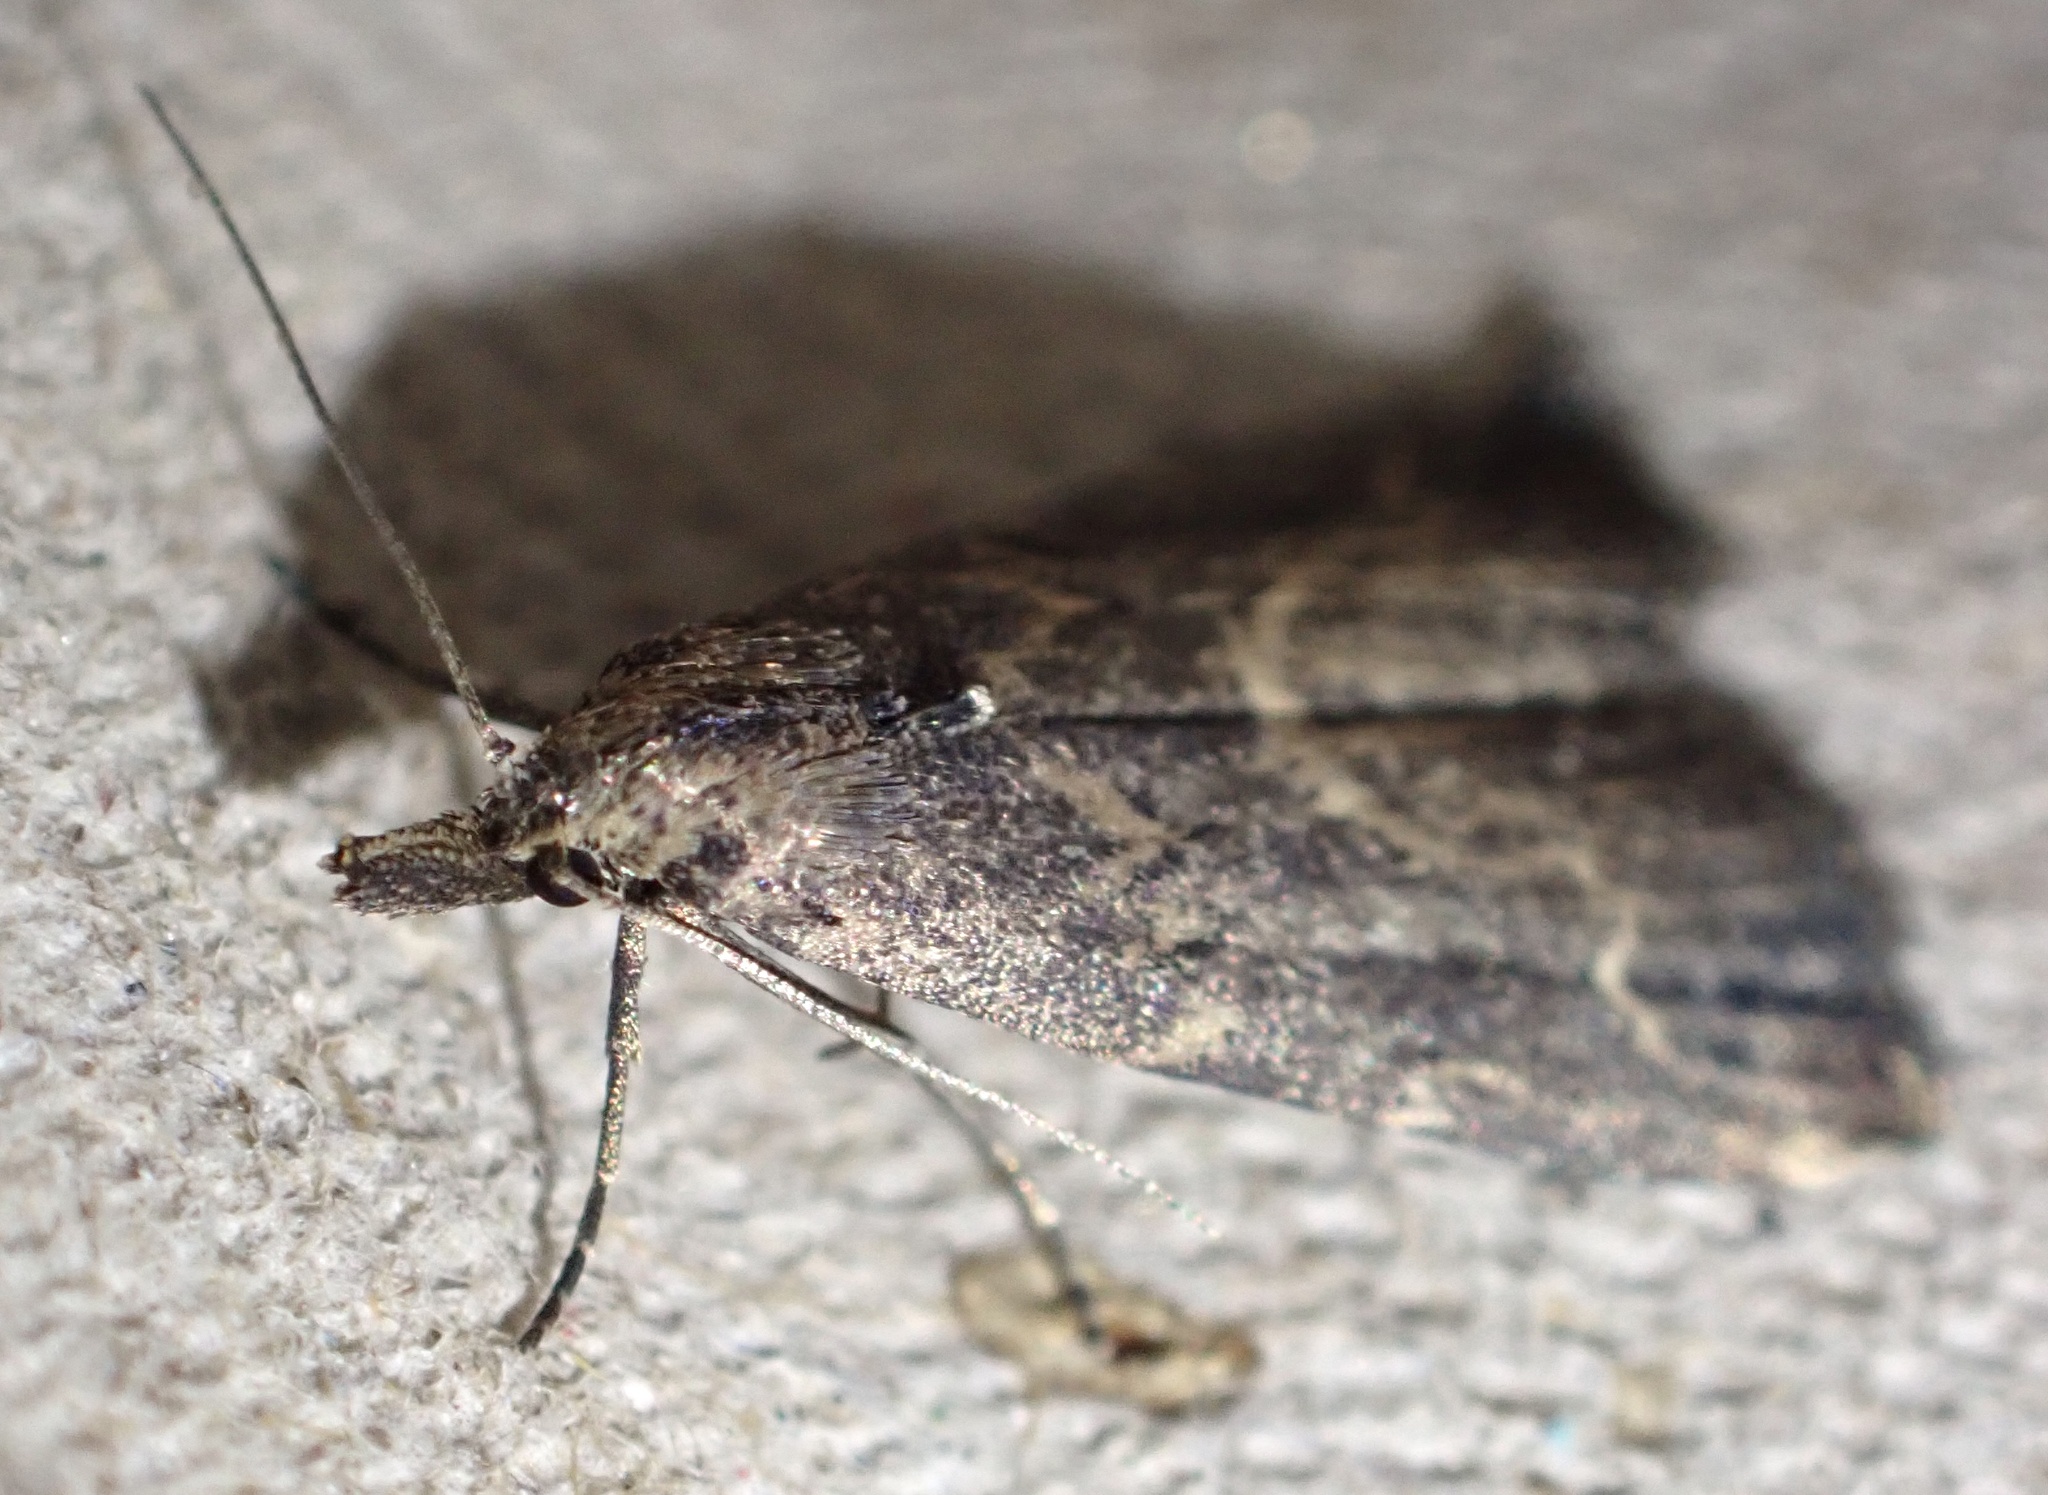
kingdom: Animalia
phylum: Arthropoda
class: Insecta
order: Lepidoptera
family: Erebidae
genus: Schrankia
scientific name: Schrankia costaestrigalis
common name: Pinion-streaked snout
